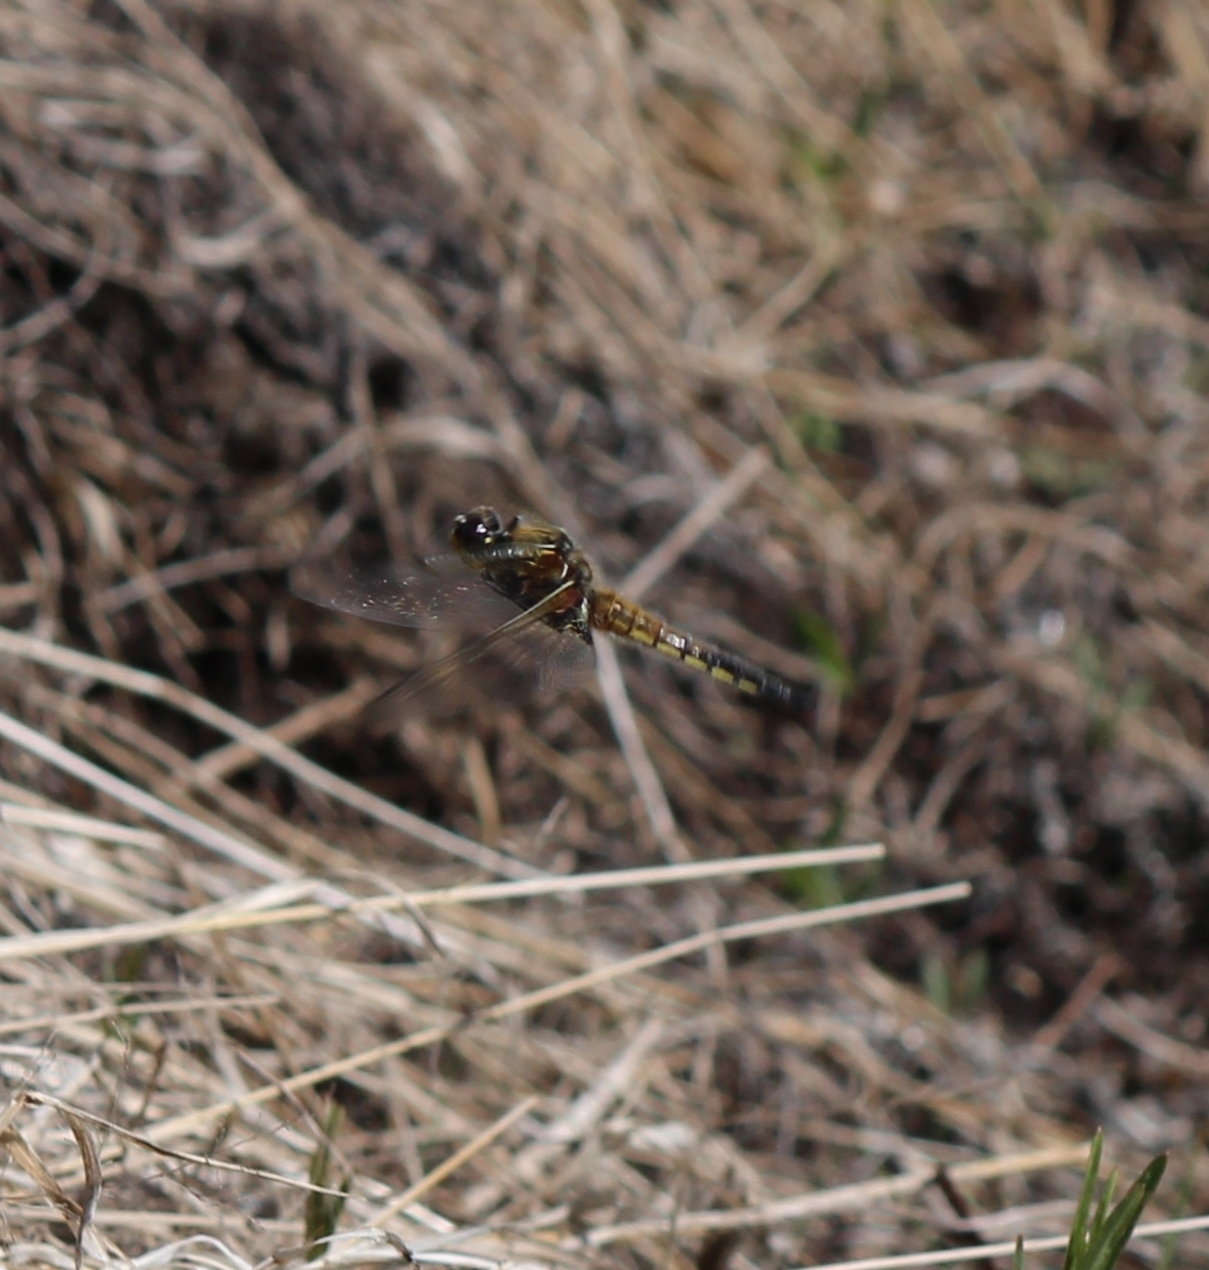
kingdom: Animalia
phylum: Arthropoda
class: Insecta
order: Odonata
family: Libellulidae
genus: Libellula
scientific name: Libellula quadrimaculata
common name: Four-spotted chaser
